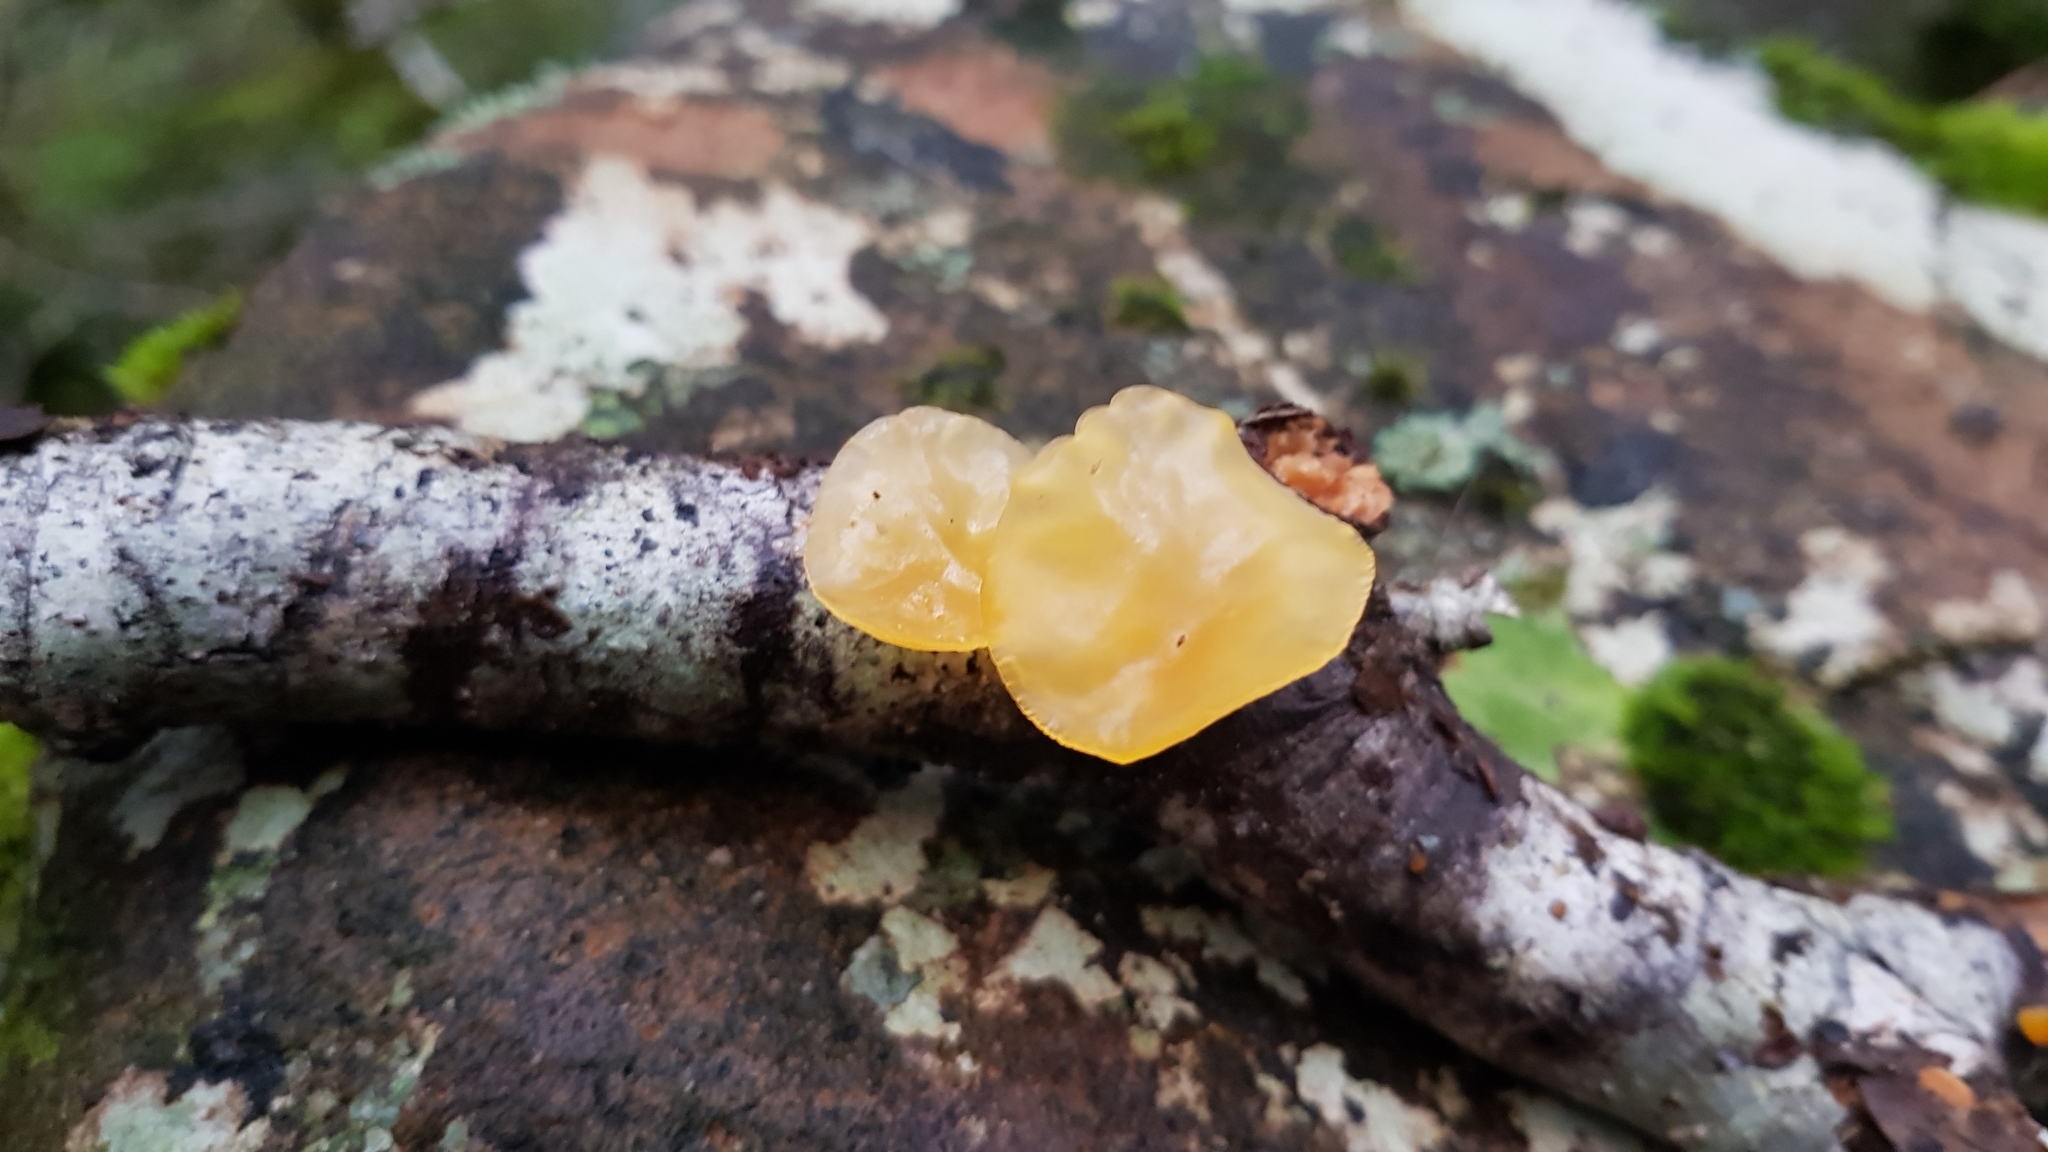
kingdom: Fungi
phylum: Basidiomycota
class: Dacrymycetes
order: Dacrymycetales
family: Dacrymycetaceae
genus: Heterotextus
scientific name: Heterotextus miltinus
